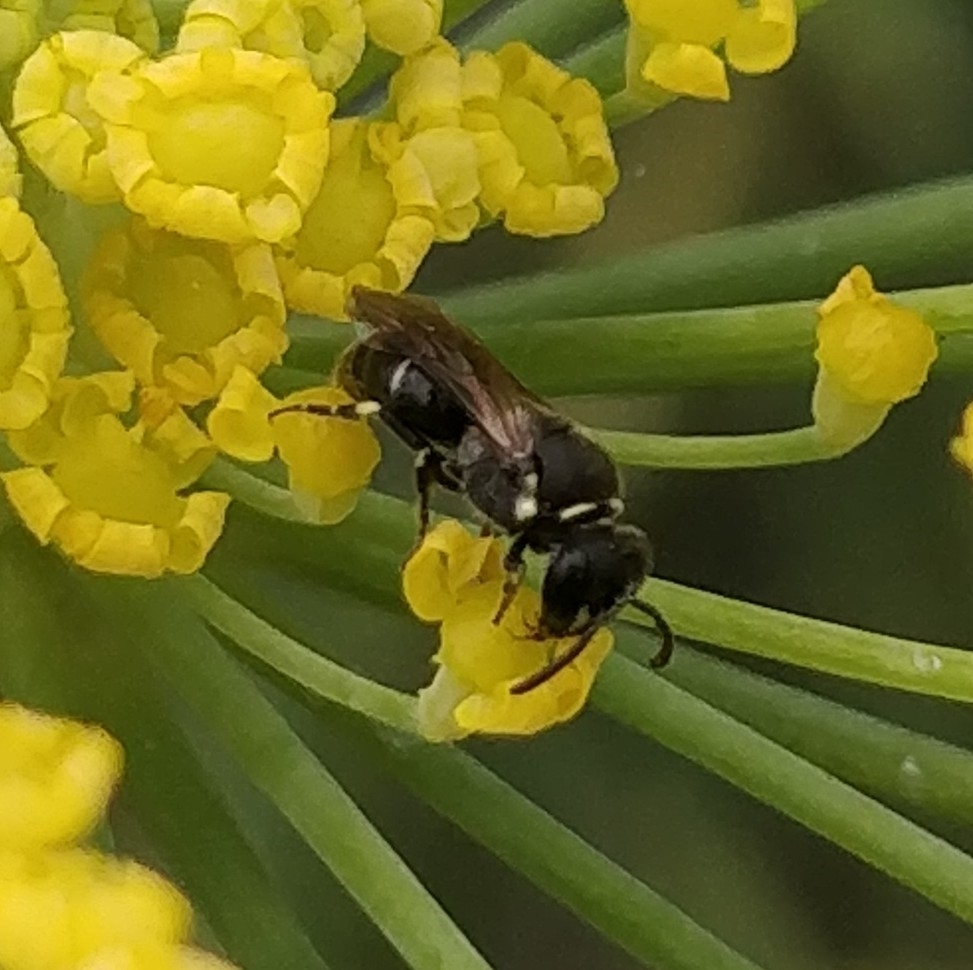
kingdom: Animalia
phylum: Arthropoda
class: Insecta
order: Hymenoptera
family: Colletidae
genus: Hylaeus
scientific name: Hylaeus punctatus
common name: Punctate masked bee
